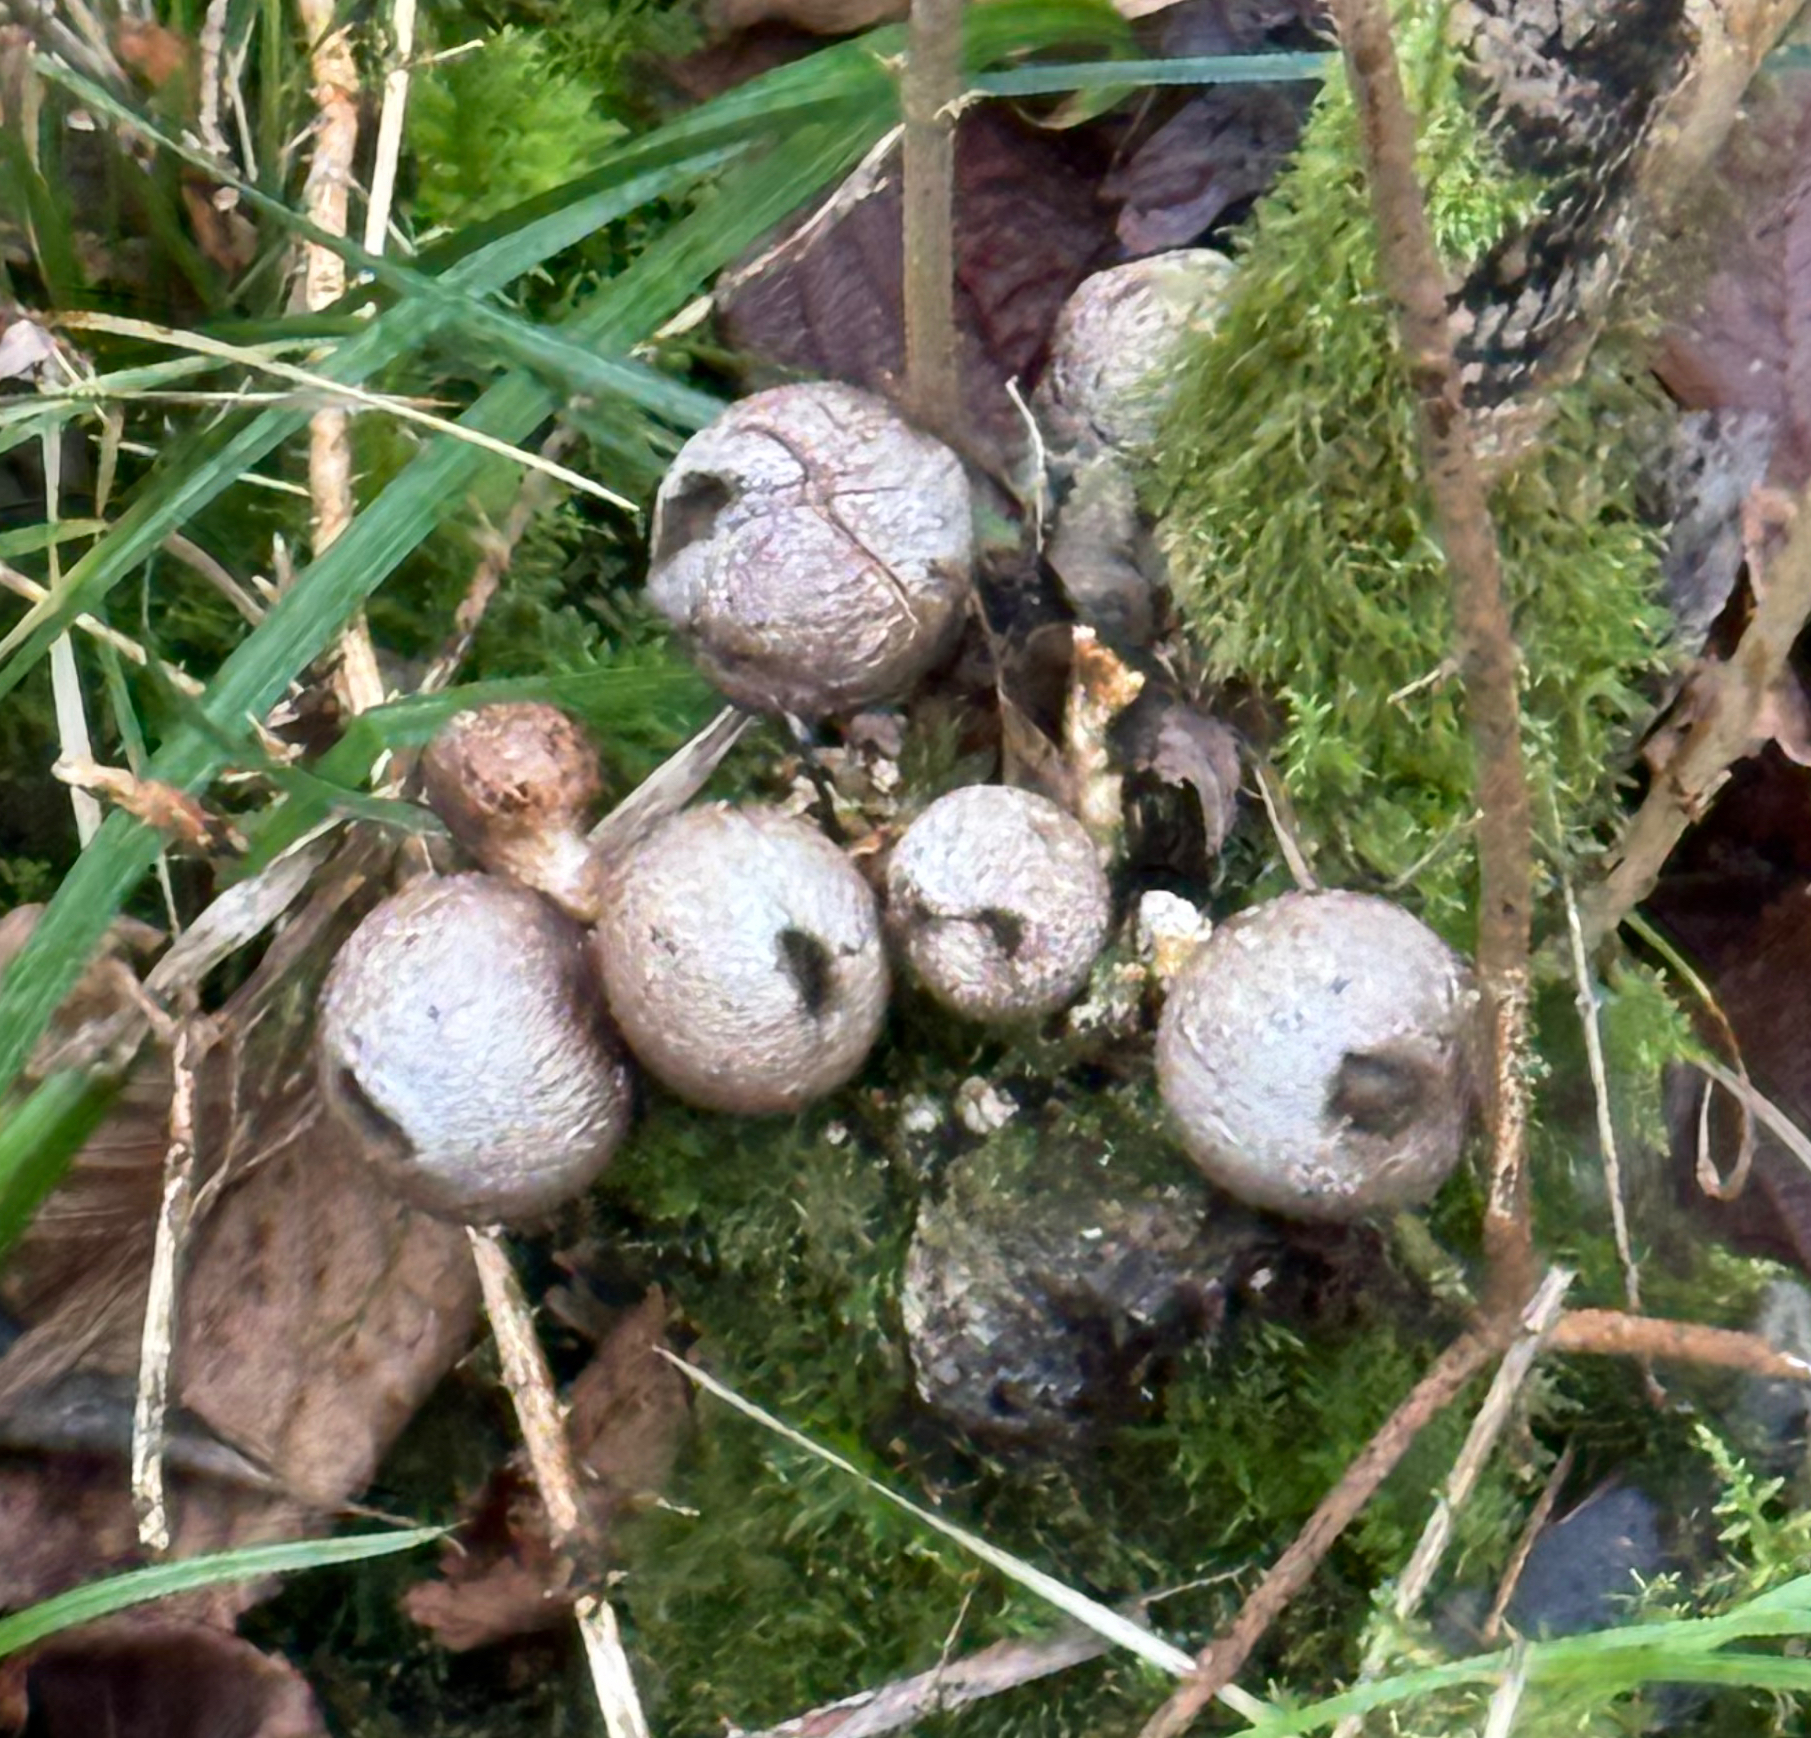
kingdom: Fungi
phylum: Basidiomycota
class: Agaricomycetes
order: Agaricales
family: Lycoperdaceae
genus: Apioperdon
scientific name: Apioperdon pyriforme
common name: Pear-shaped puffball
